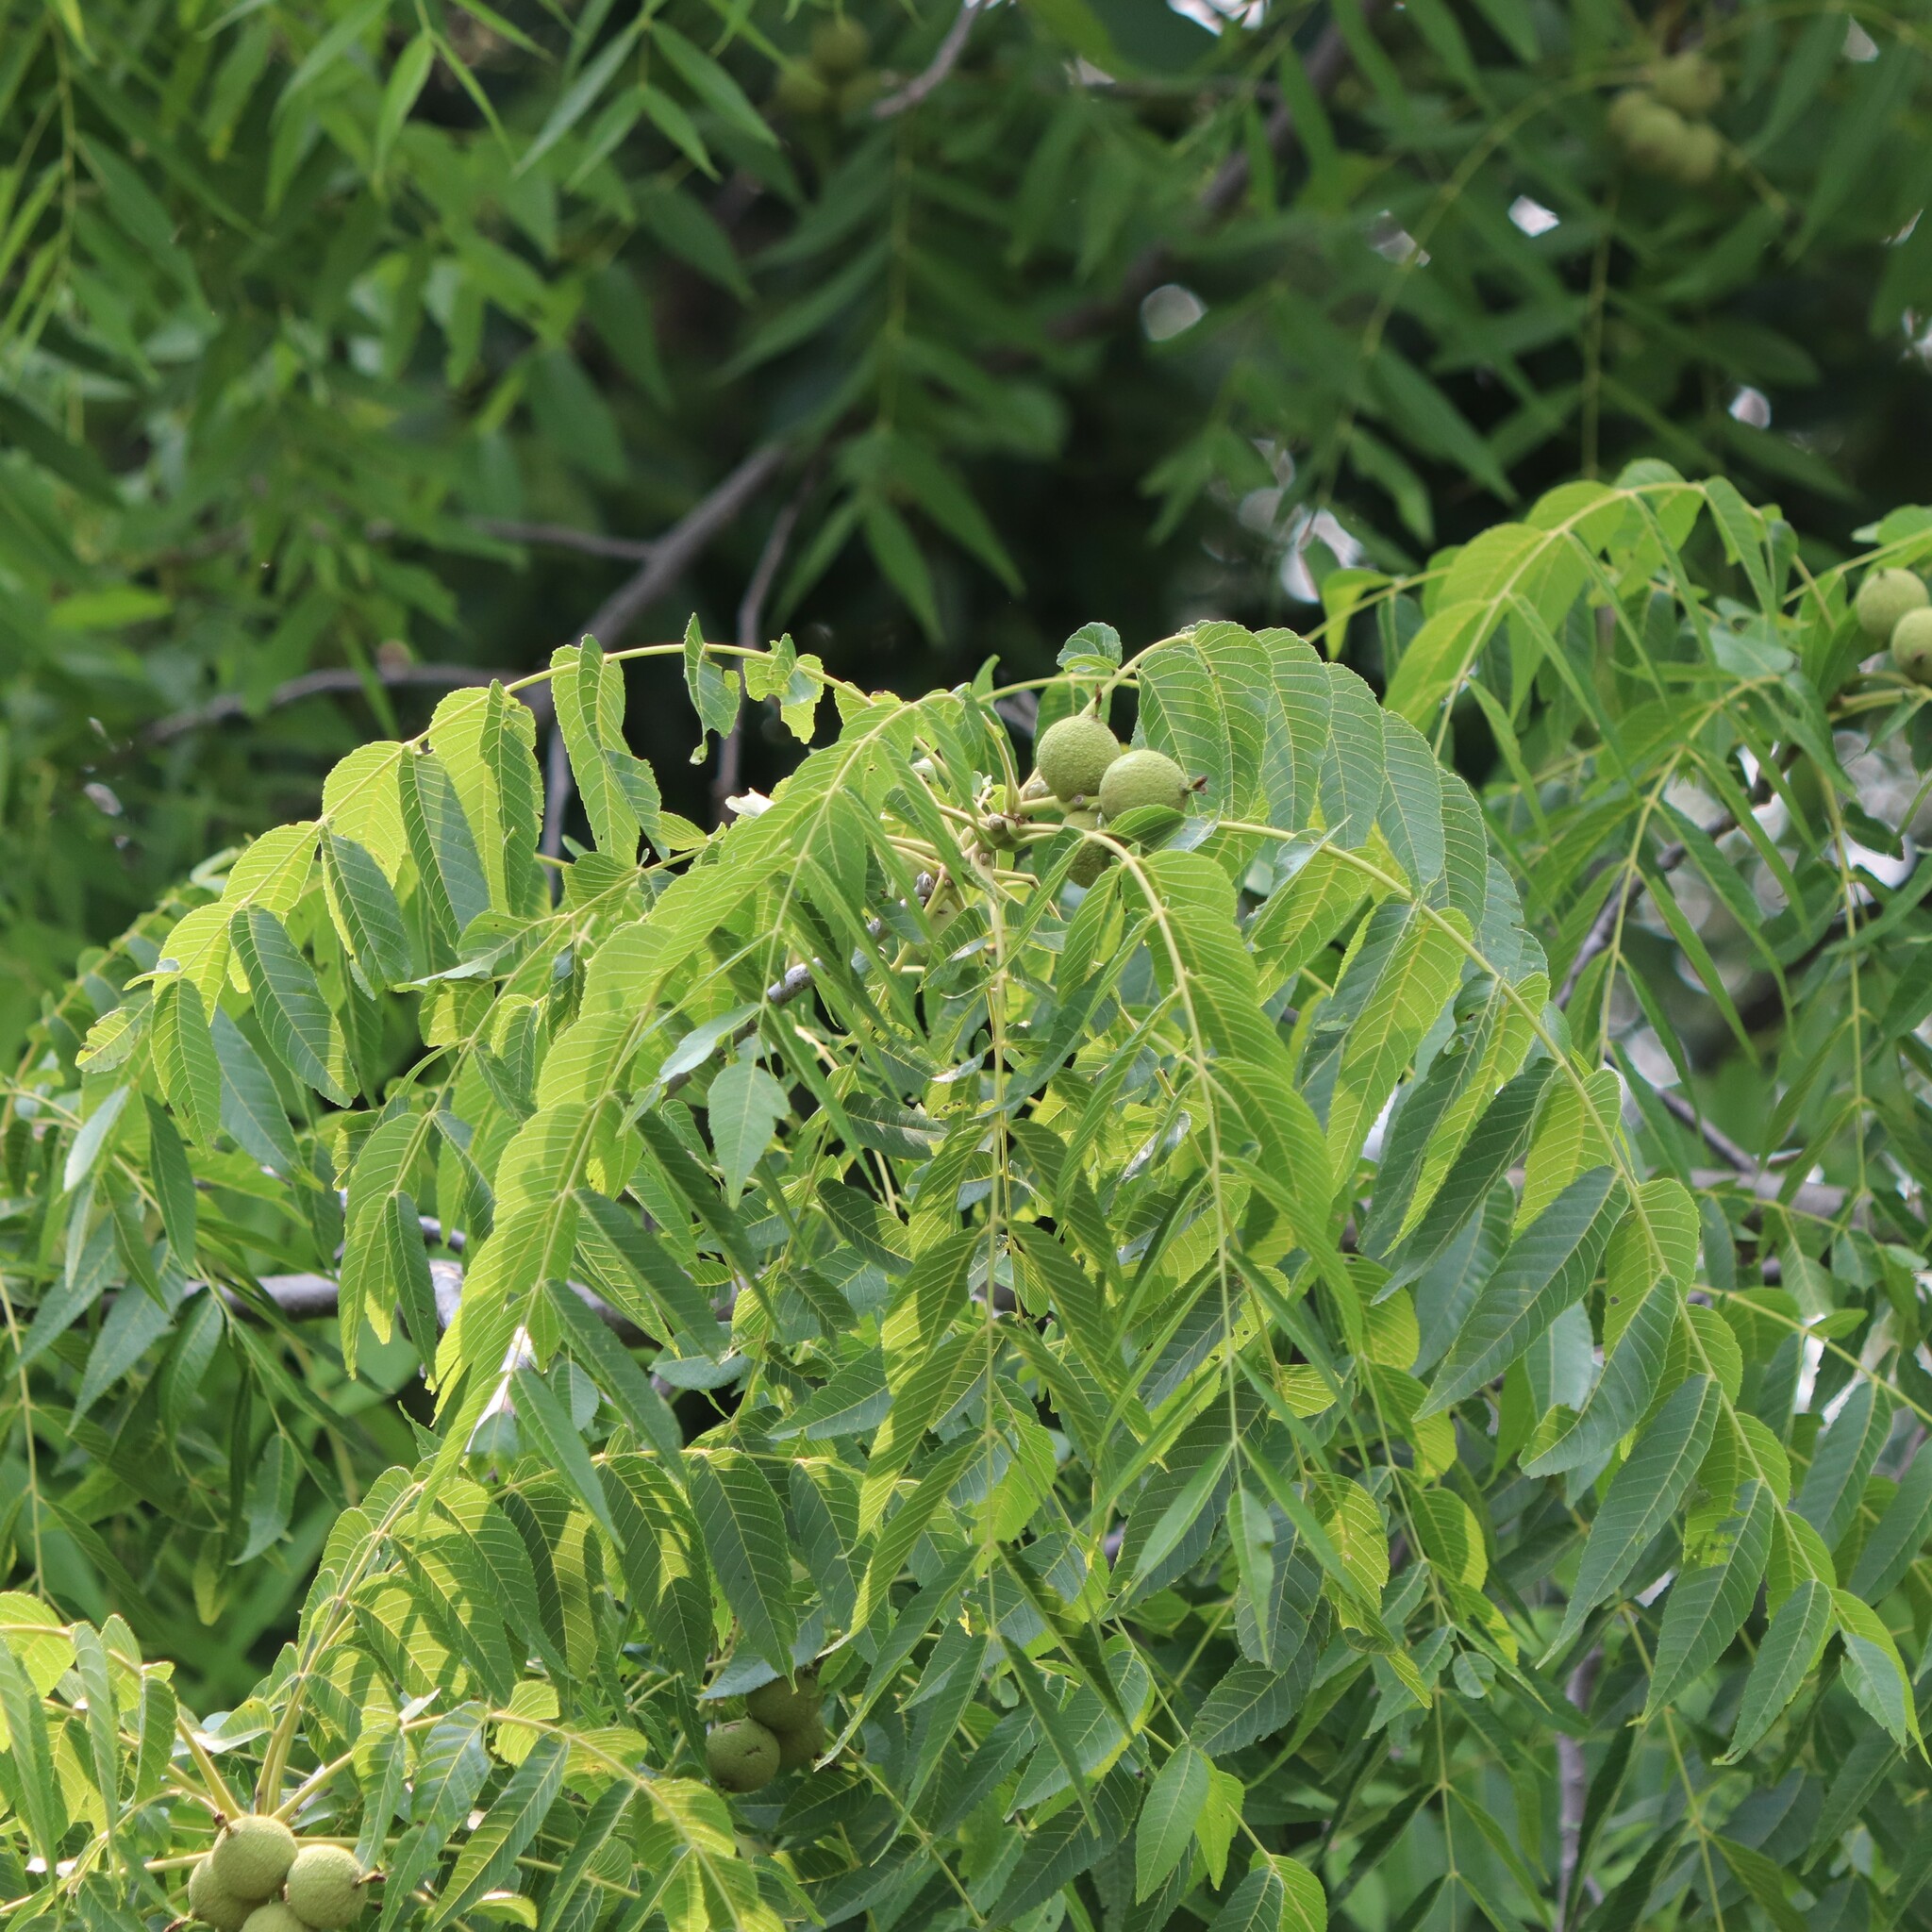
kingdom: Plantae
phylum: Tracheophyta
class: Magnoliopsida
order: Fagales
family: Juglandaceae
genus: Juglans
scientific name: Juglans nigra
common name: Black walnut
